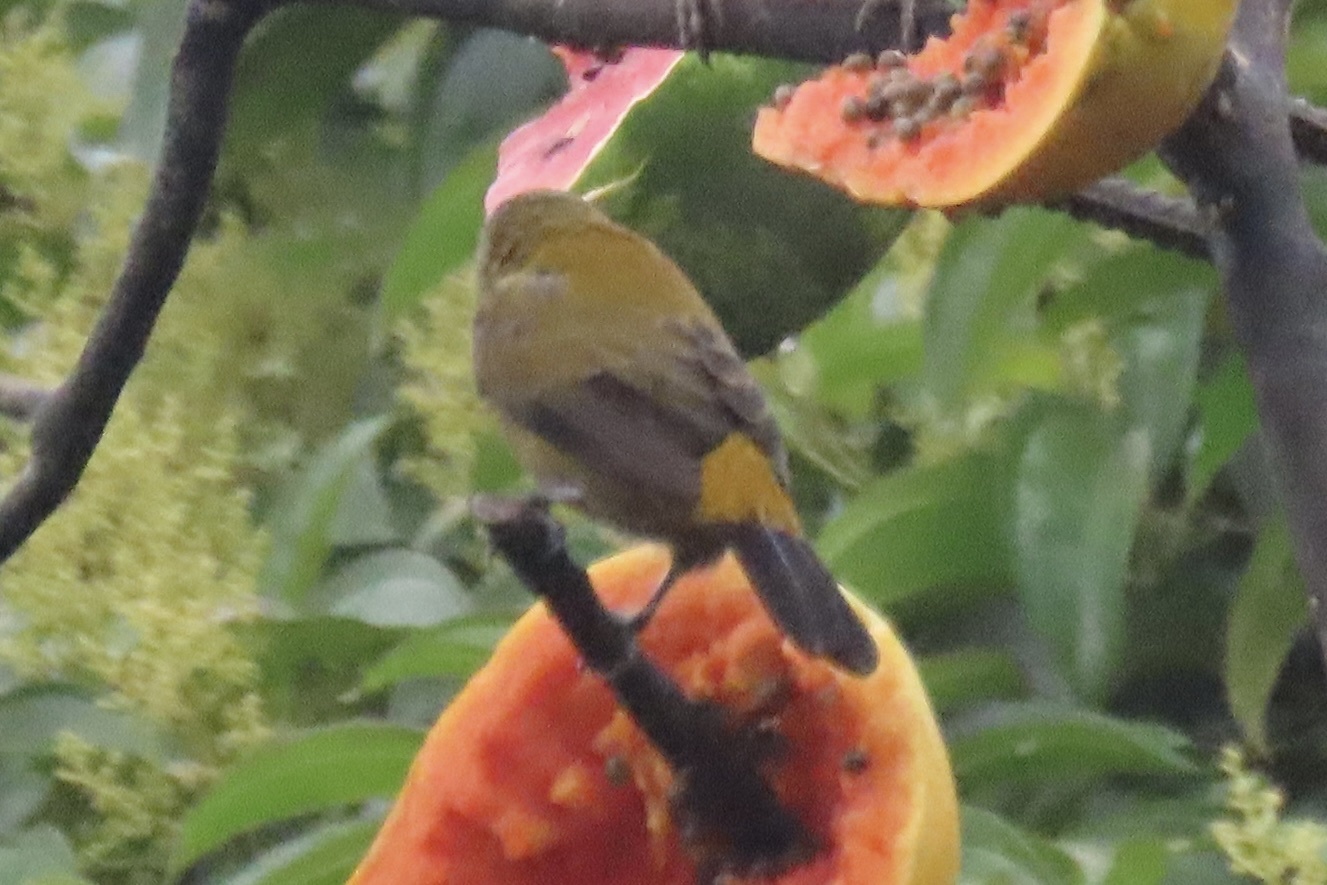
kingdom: Animalia
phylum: Chordata
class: Aves
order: Passeriformes
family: Thraupidae
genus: Ramphocelus
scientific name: Ramphocelus passerinii
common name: Passerini's tanager
